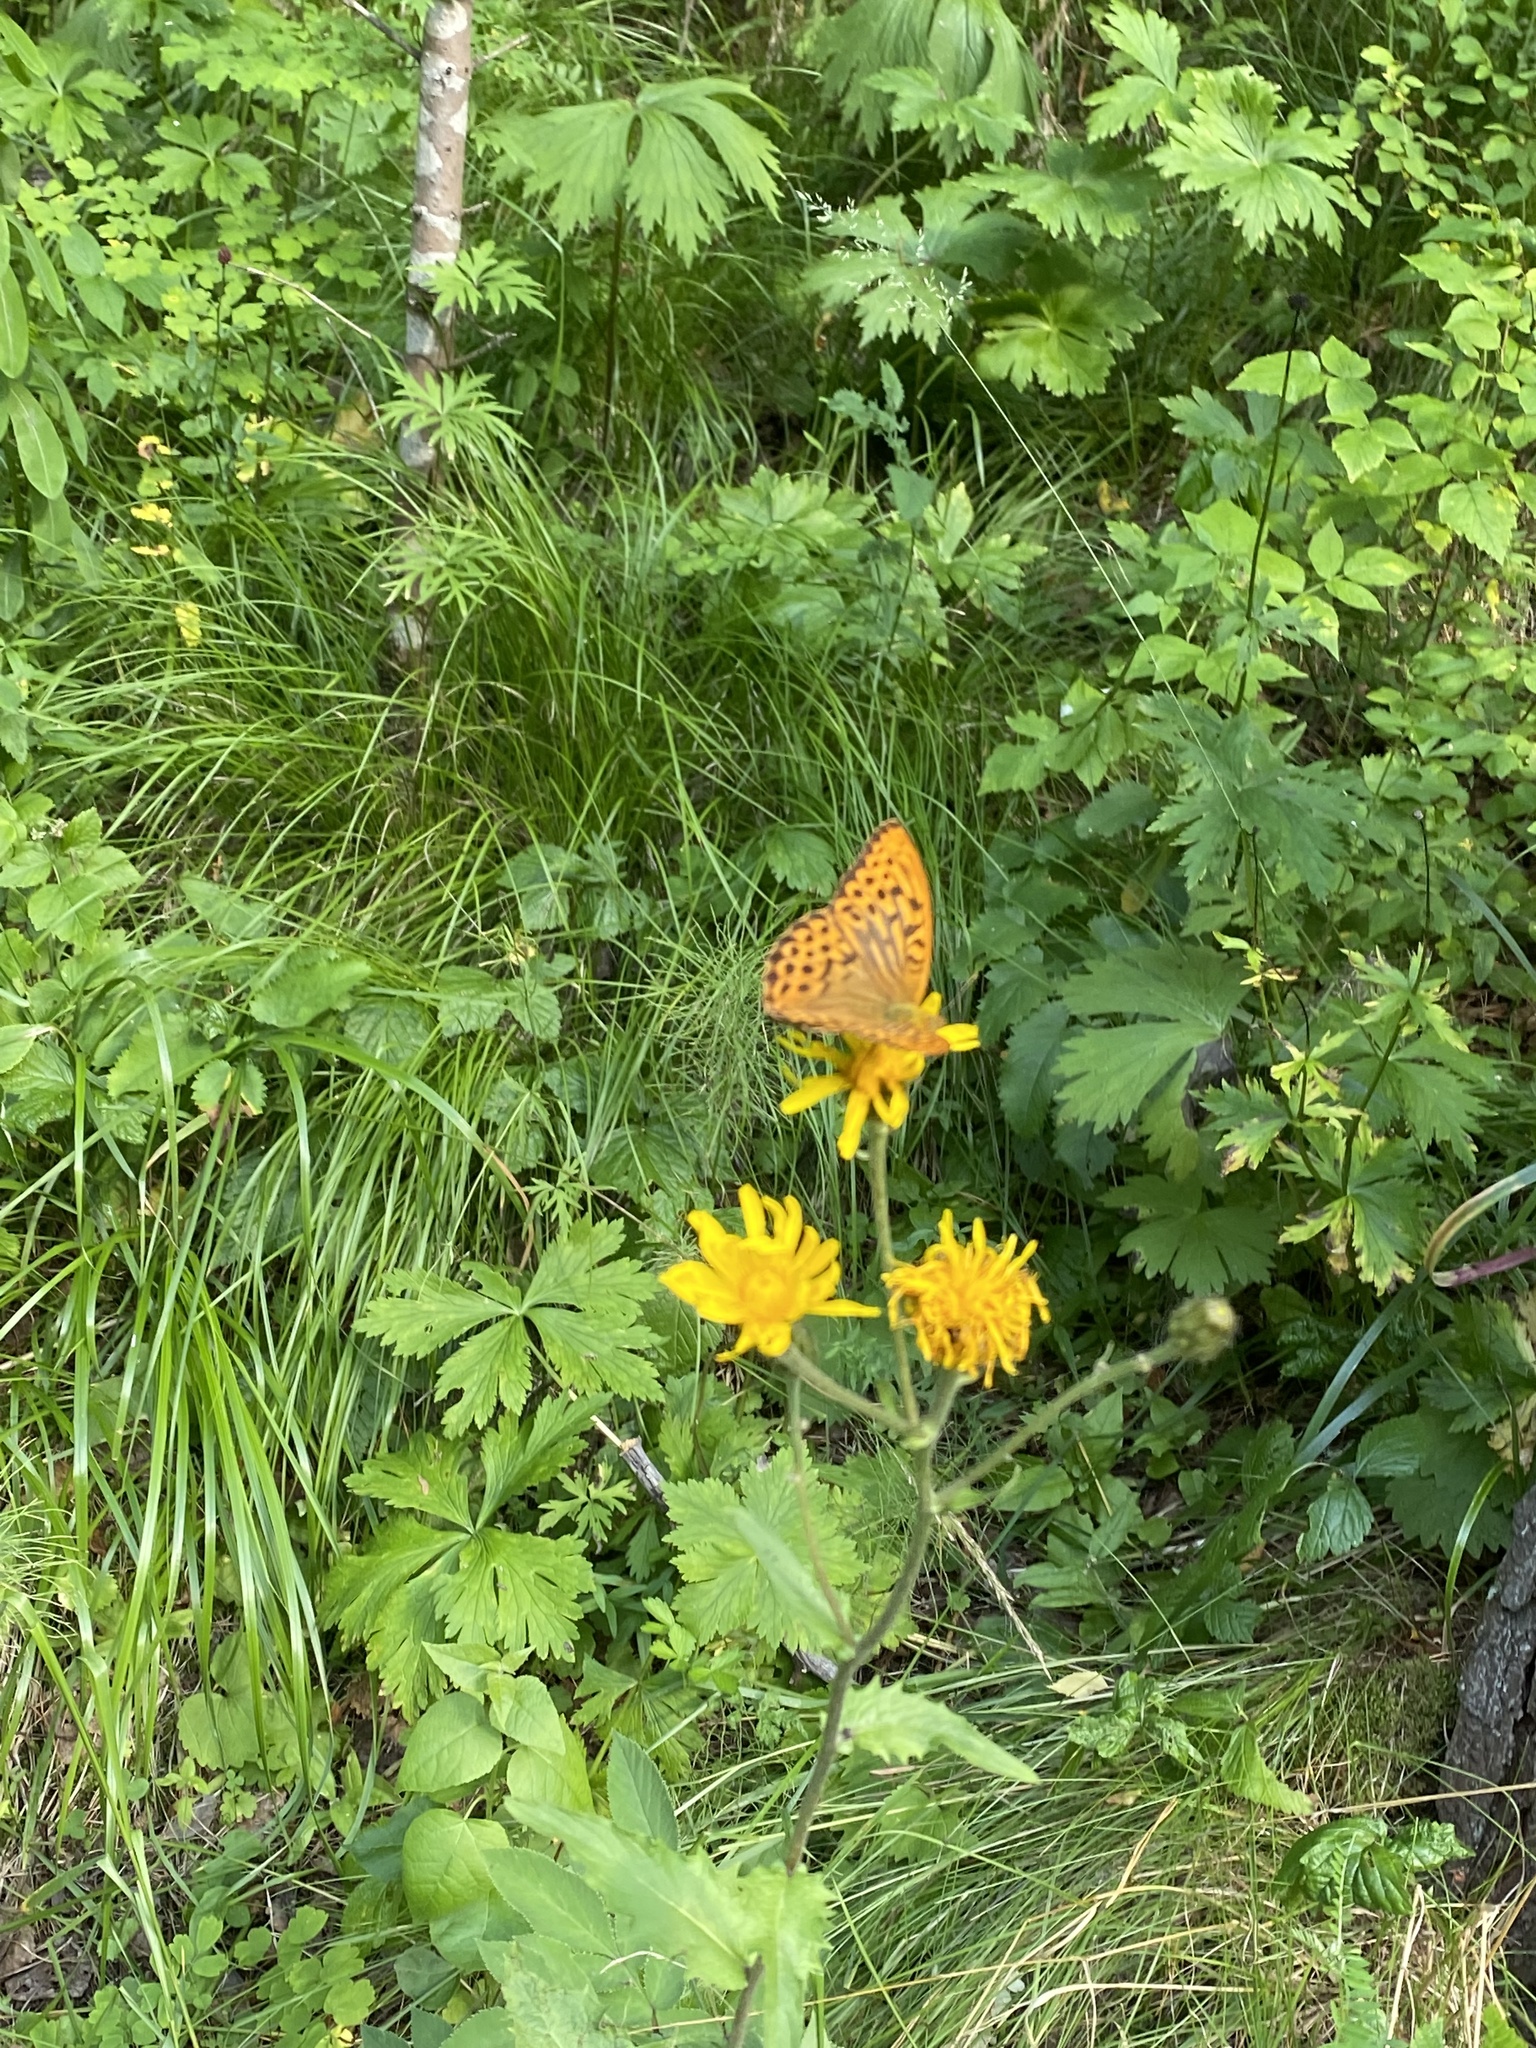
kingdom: Animalia
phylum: Arthropoda
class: Insecta
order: Lepidoptera
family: Nymphalidae
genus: Argynnis
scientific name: Argynnis paphia
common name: Silver-washed fritillary
